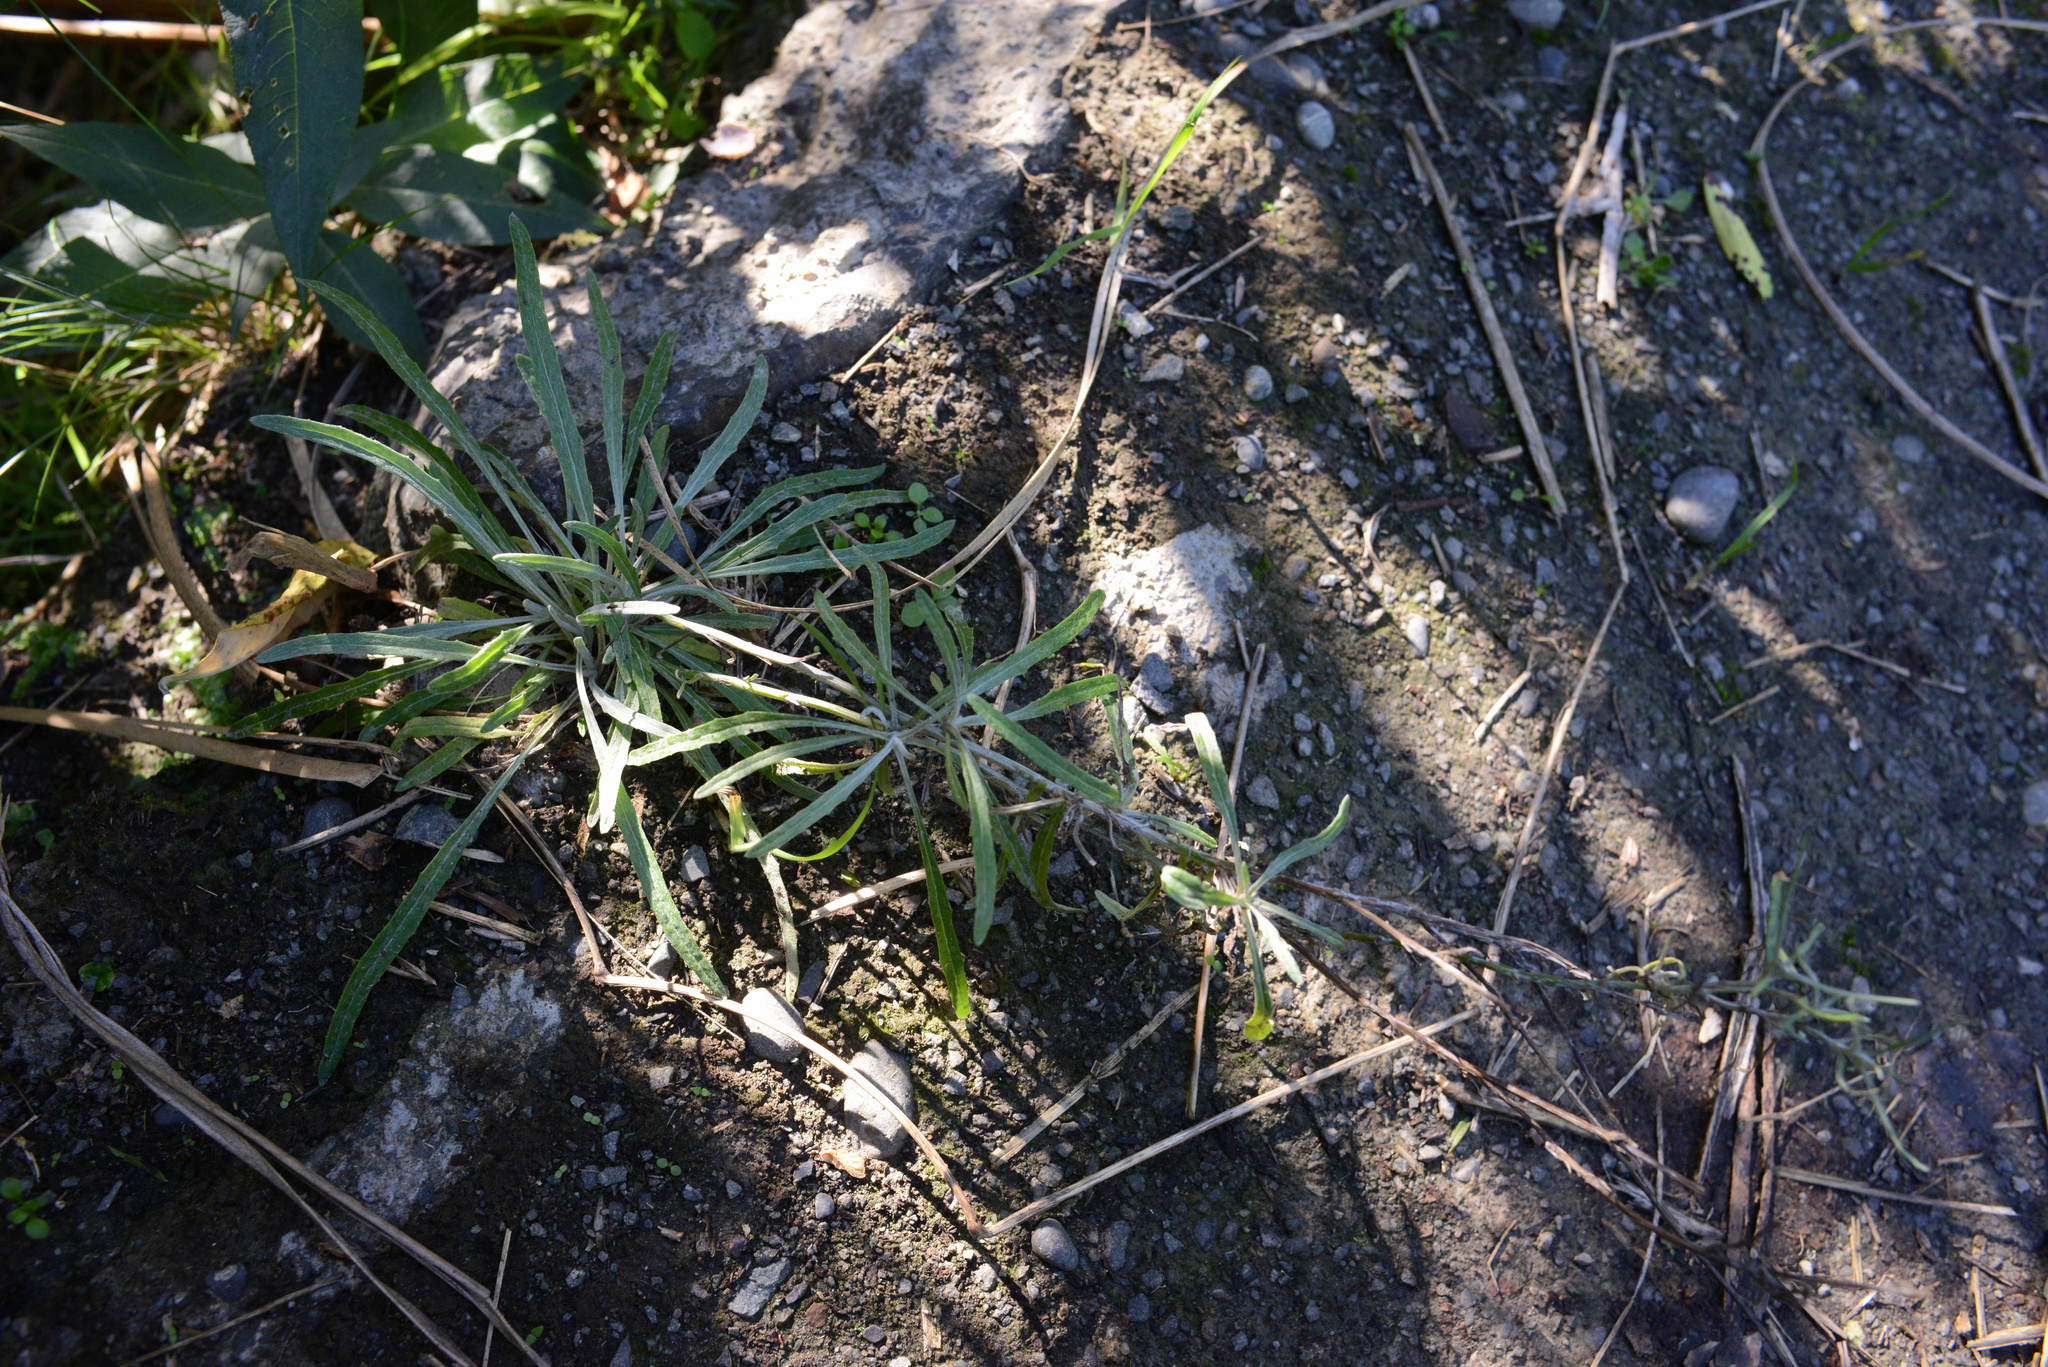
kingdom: Plantae
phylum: Tracheophyta
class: Magnoliopsida
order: Asterales
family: Asteraceae
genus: Senecio
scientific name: Senecio quadridentatus
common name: Cotton fireweed
